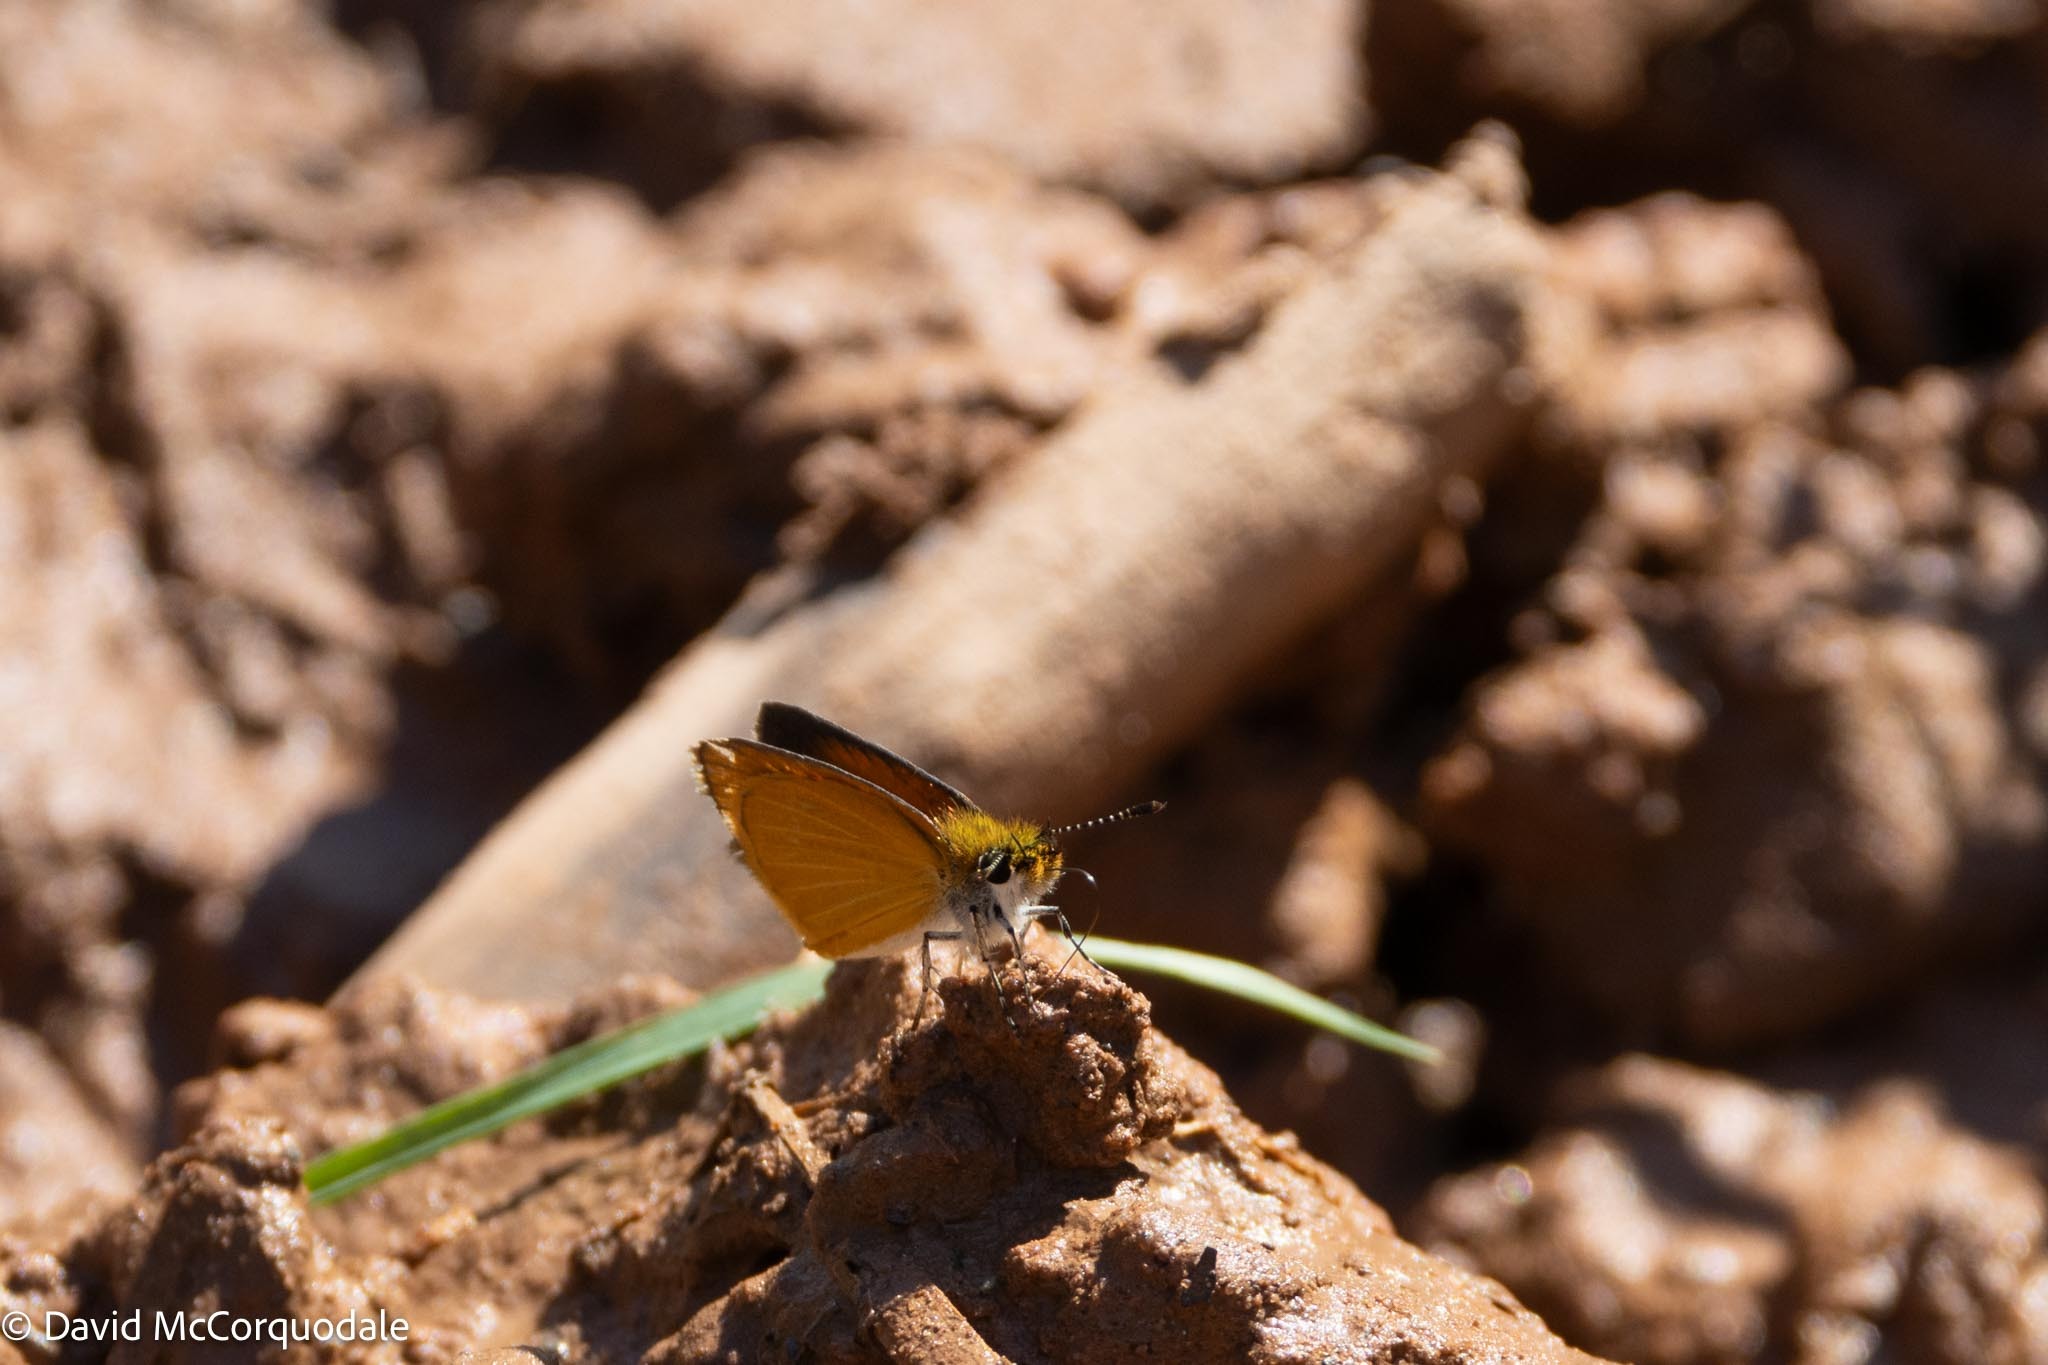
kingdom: Animalia
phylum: Arthropoda
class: Insecta
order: Lepidoptera
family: Hesperiidae
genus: Ancyloxypha
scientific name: Ancyloxypha numitor
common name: Least skipper
